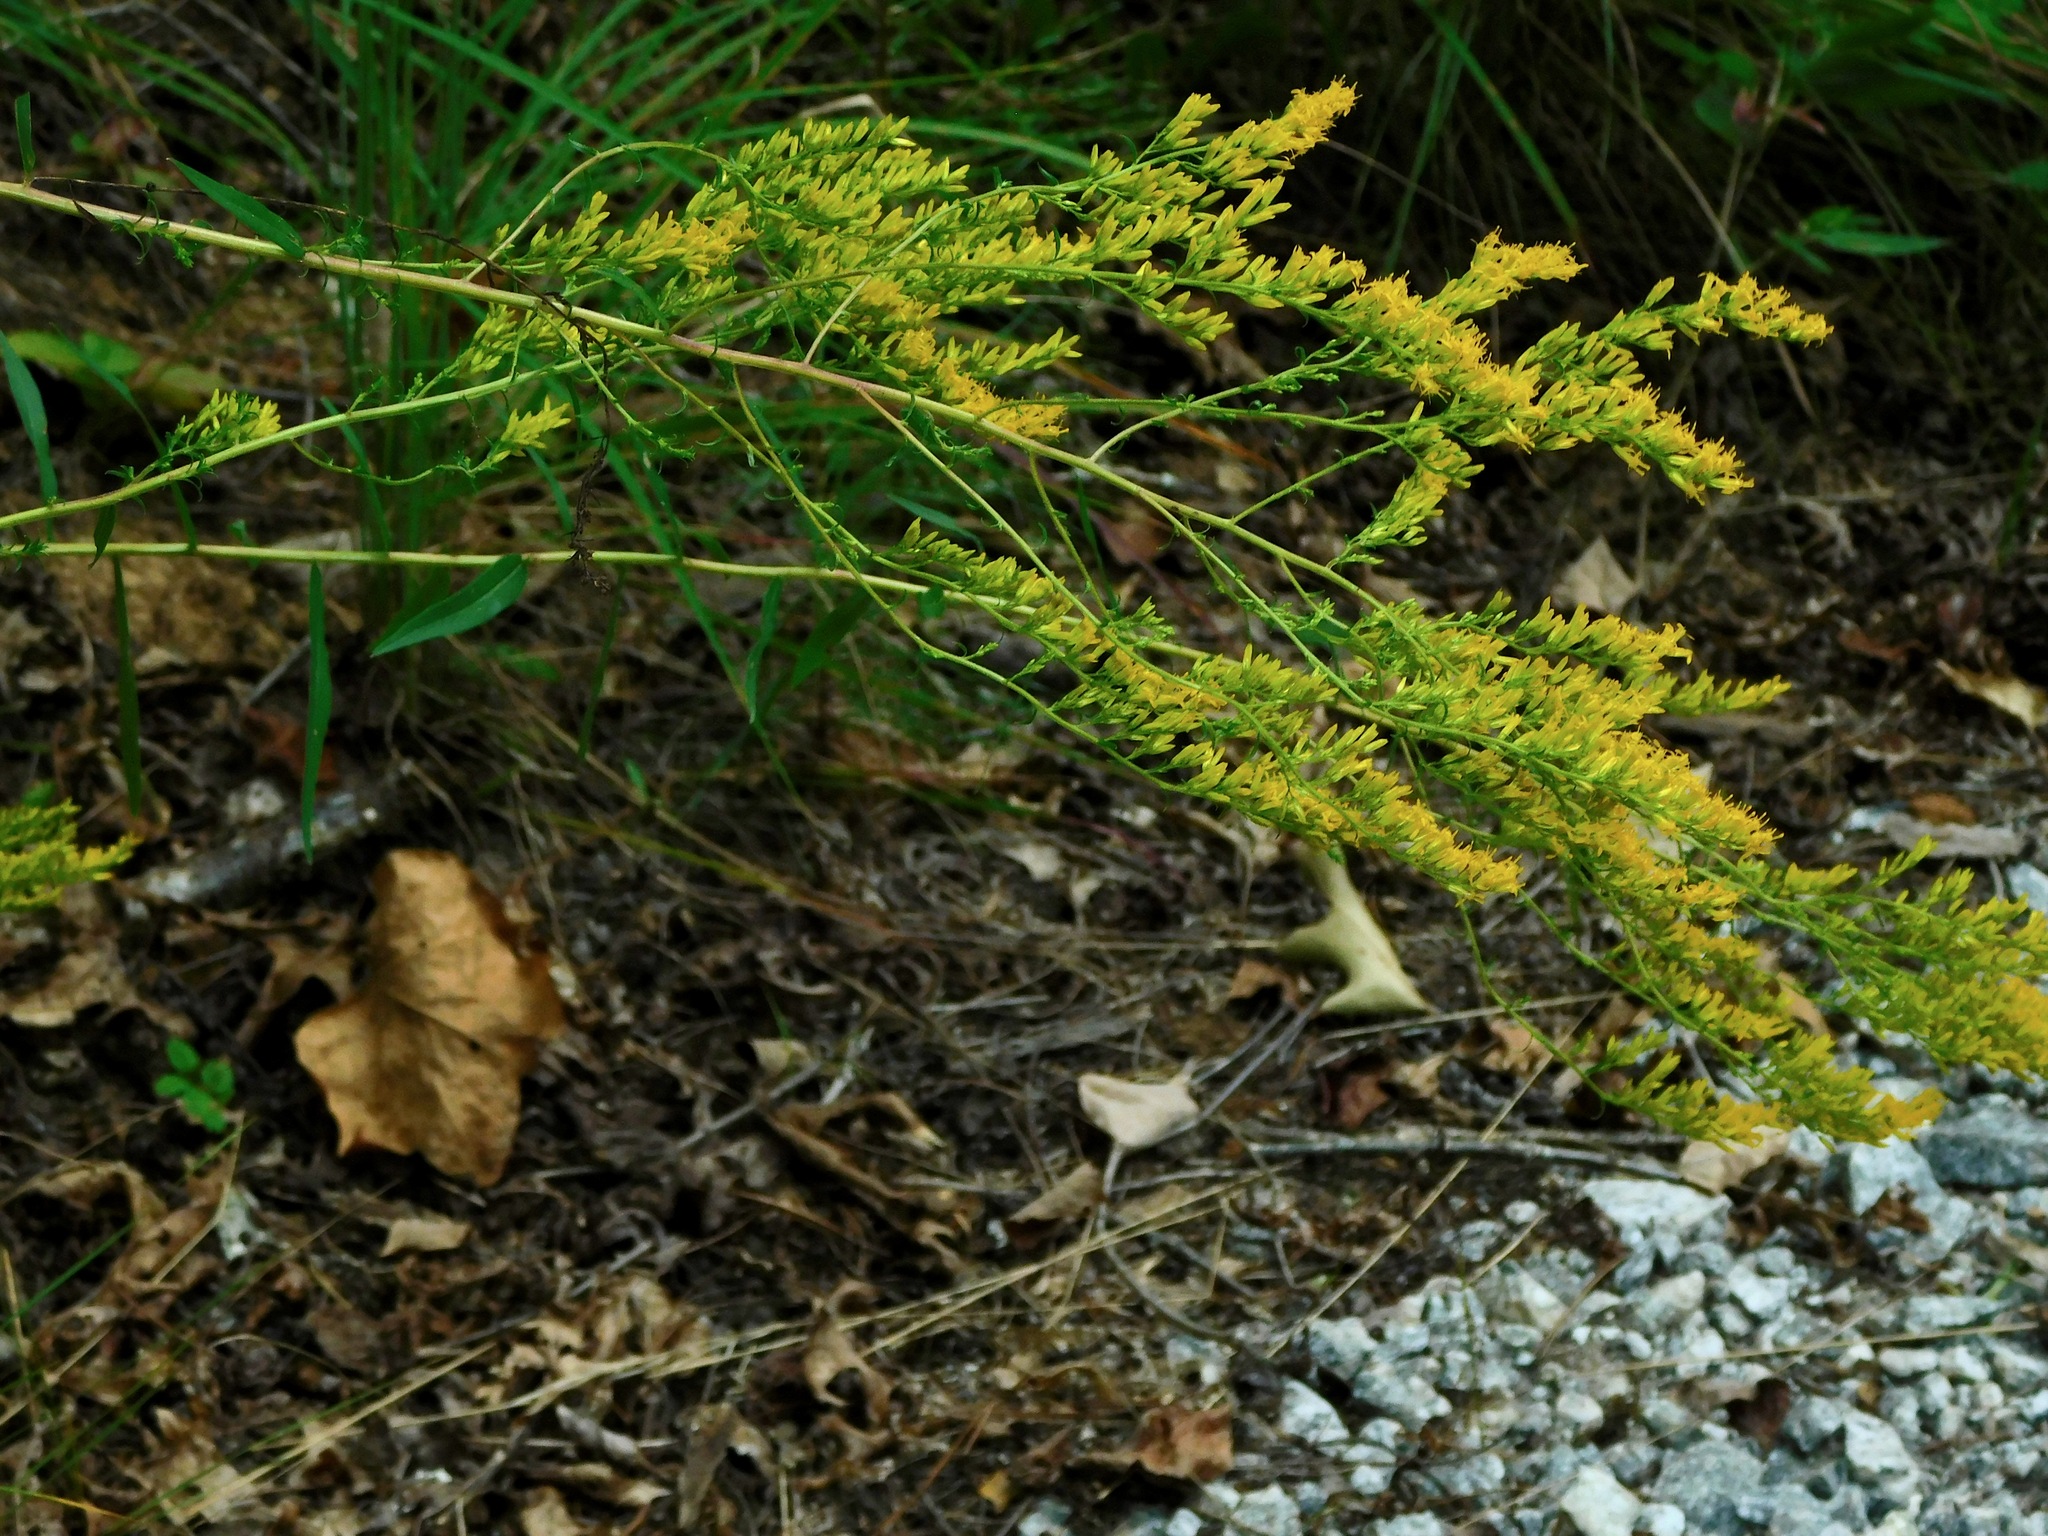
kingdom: Plantae
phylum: Tracheophyta
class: Magnoliopsida
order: Asterales
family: Asteraceae
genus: Solidago
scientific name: Solidago odora
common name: Anise-scented goldenrod
